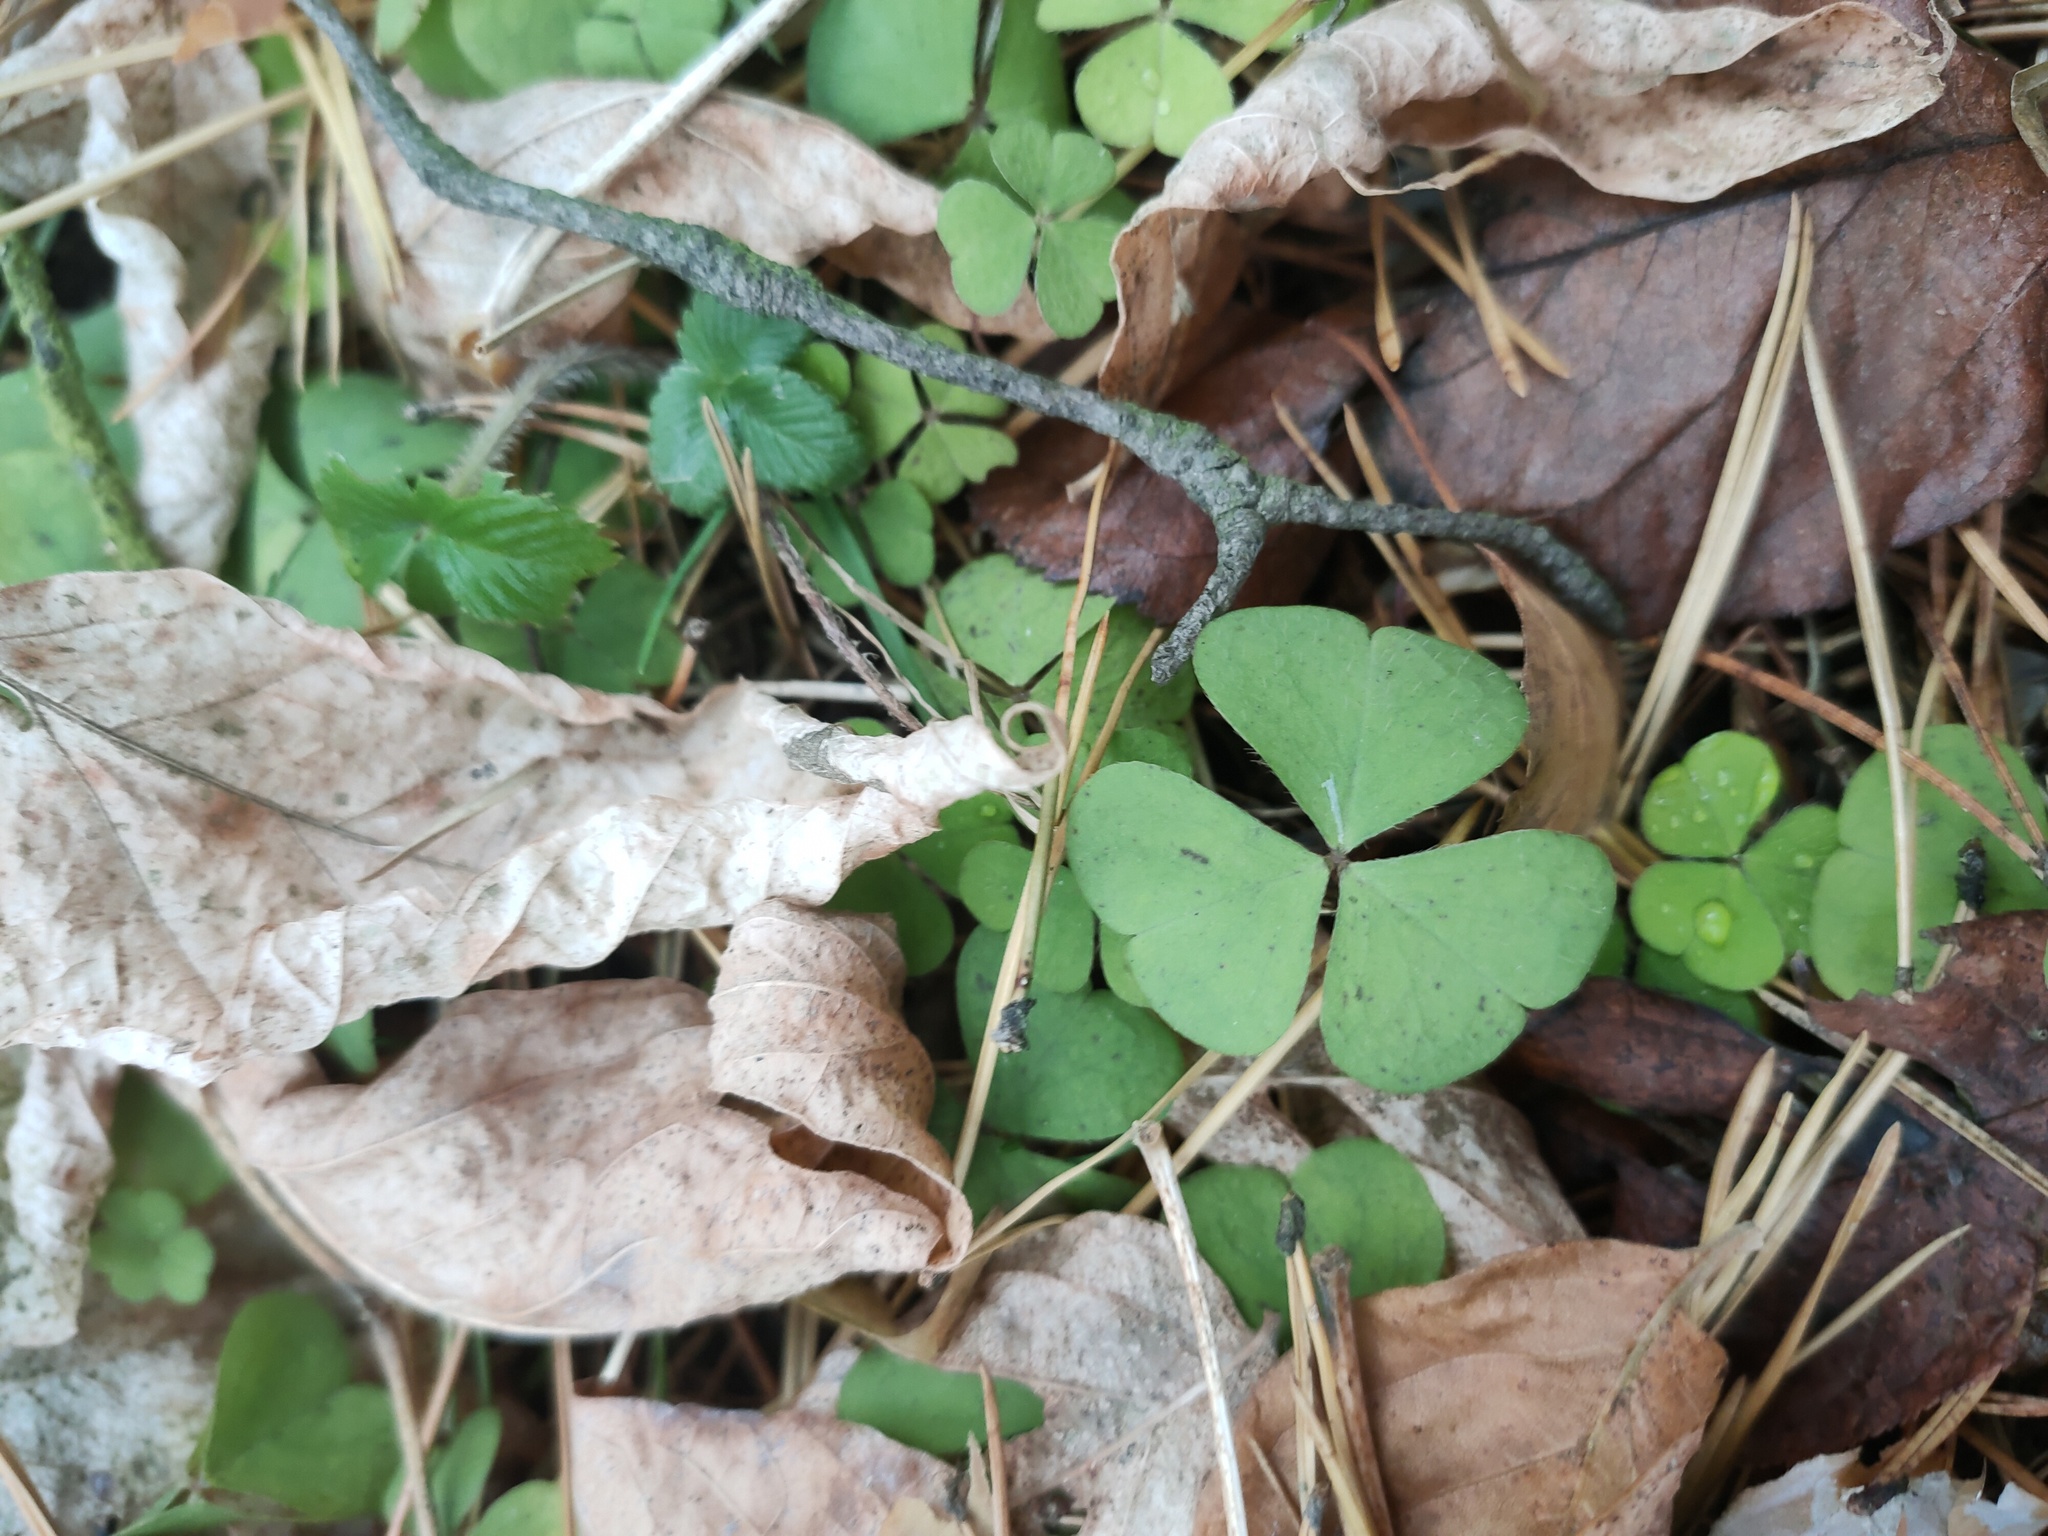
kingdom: Plantae
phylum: Tracheophyta
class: Magnoliopsida
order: Oxalidales
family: Oxalidaceae
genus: Oxalis
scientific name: Oxalis acetosella
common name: Wood-sorrel
